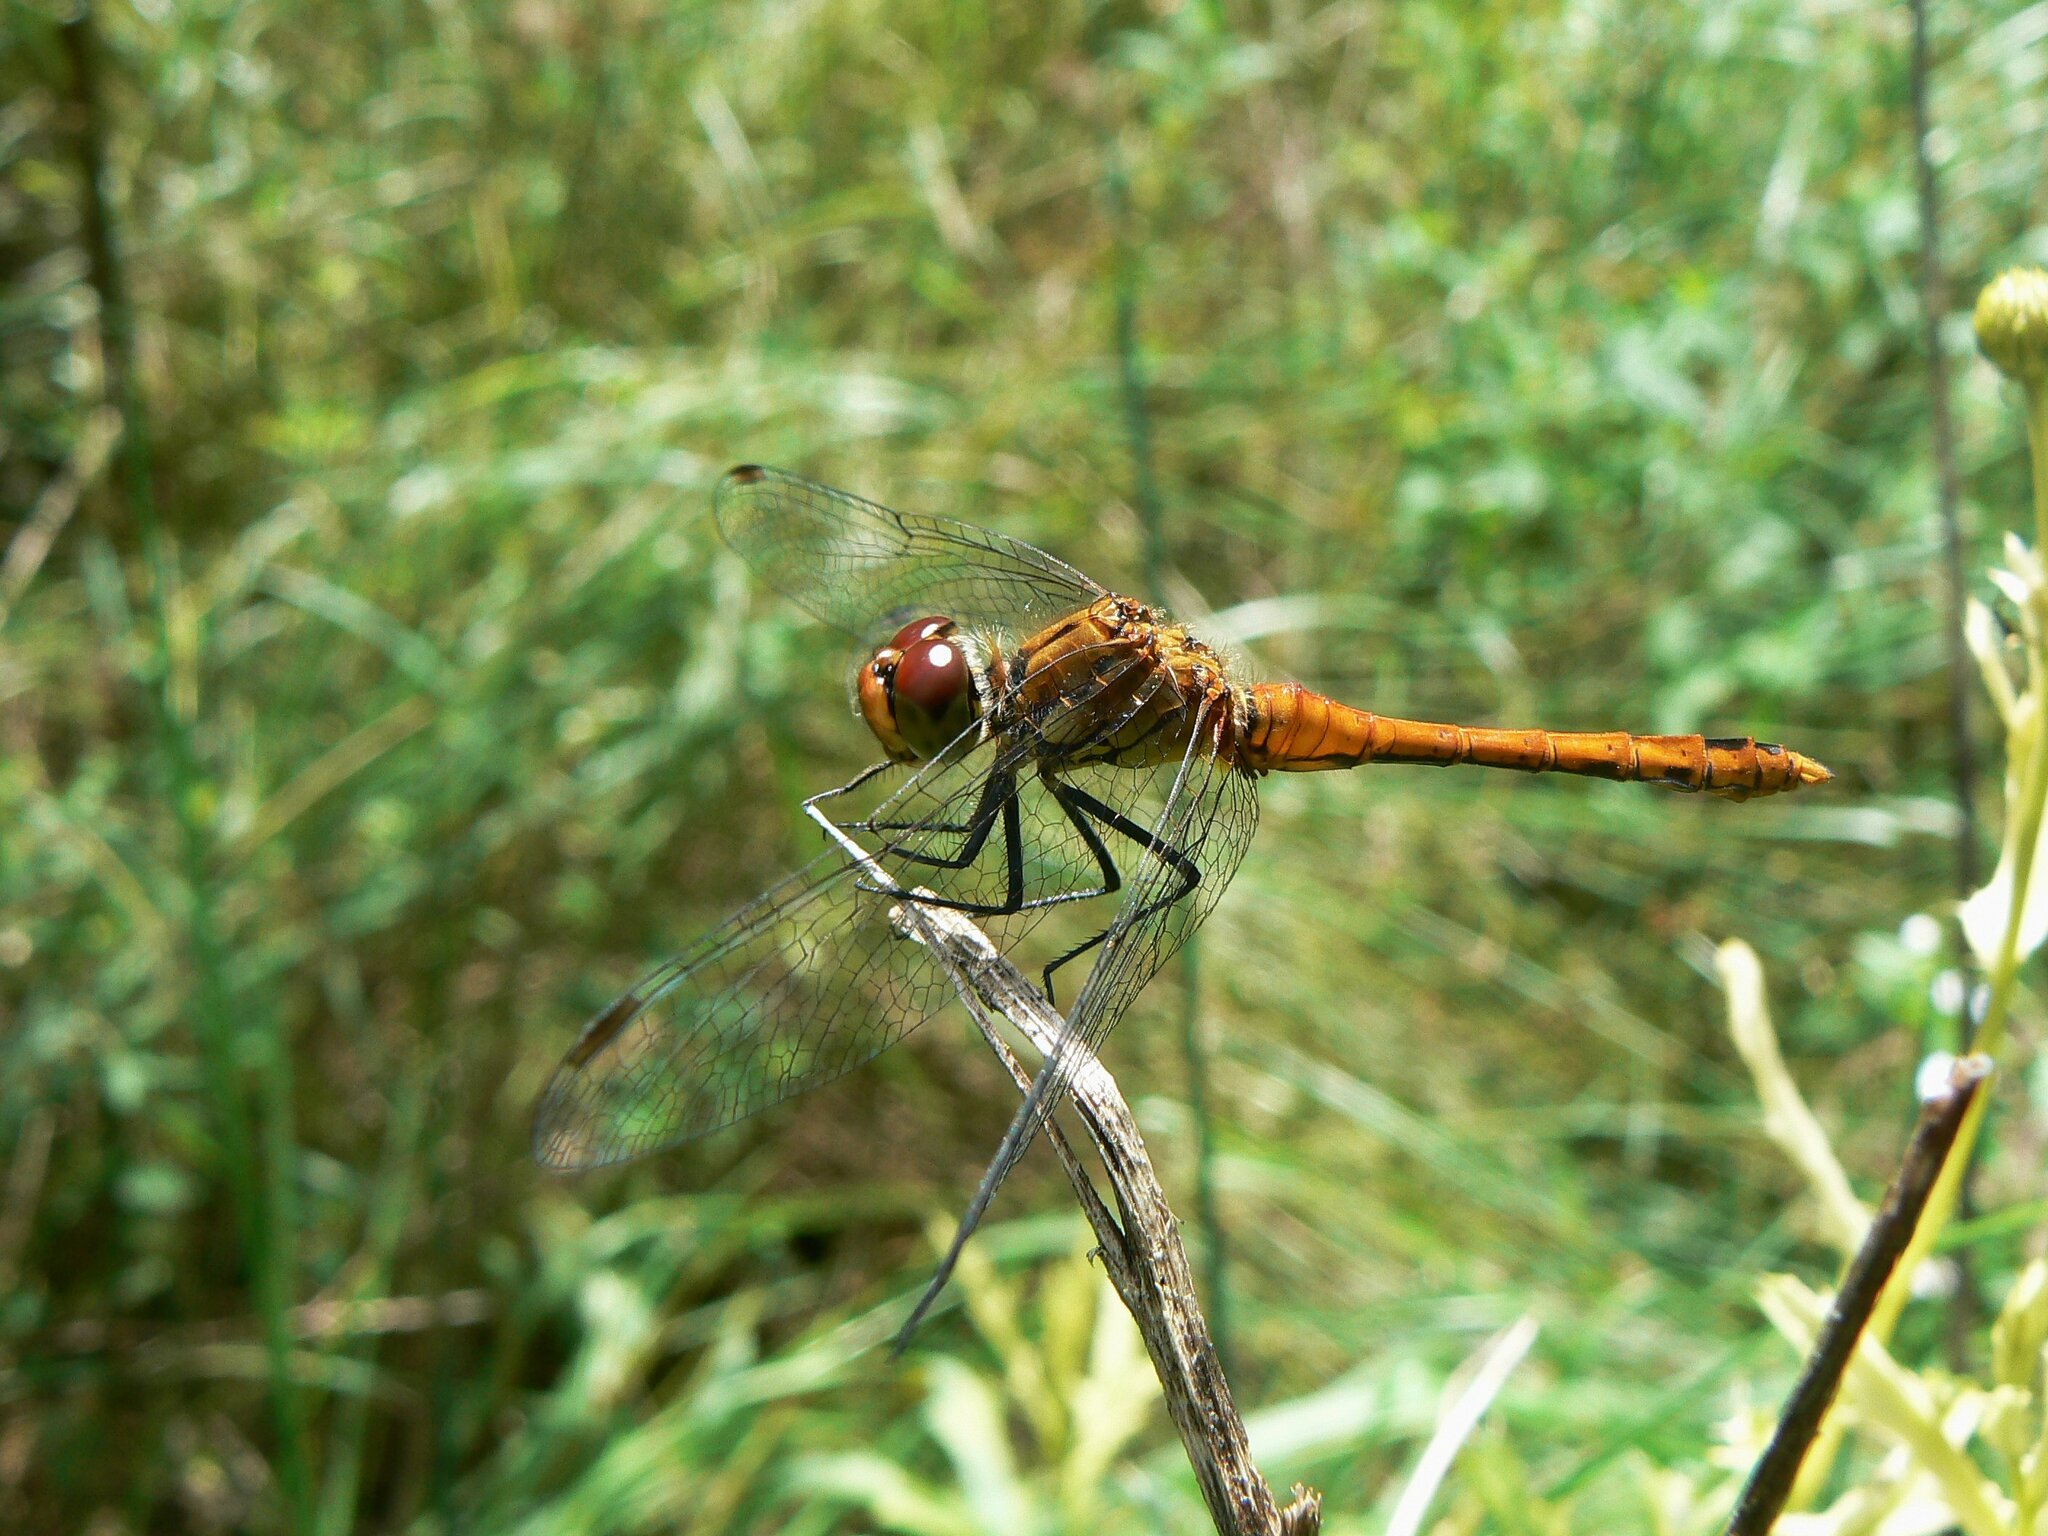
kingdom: Animalia
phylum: Arthropoda
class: Insecta
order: Odonata
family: Libellulidae
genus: Sympetrum
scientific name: Sympetrum sanguineum
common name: Ruddy darter
